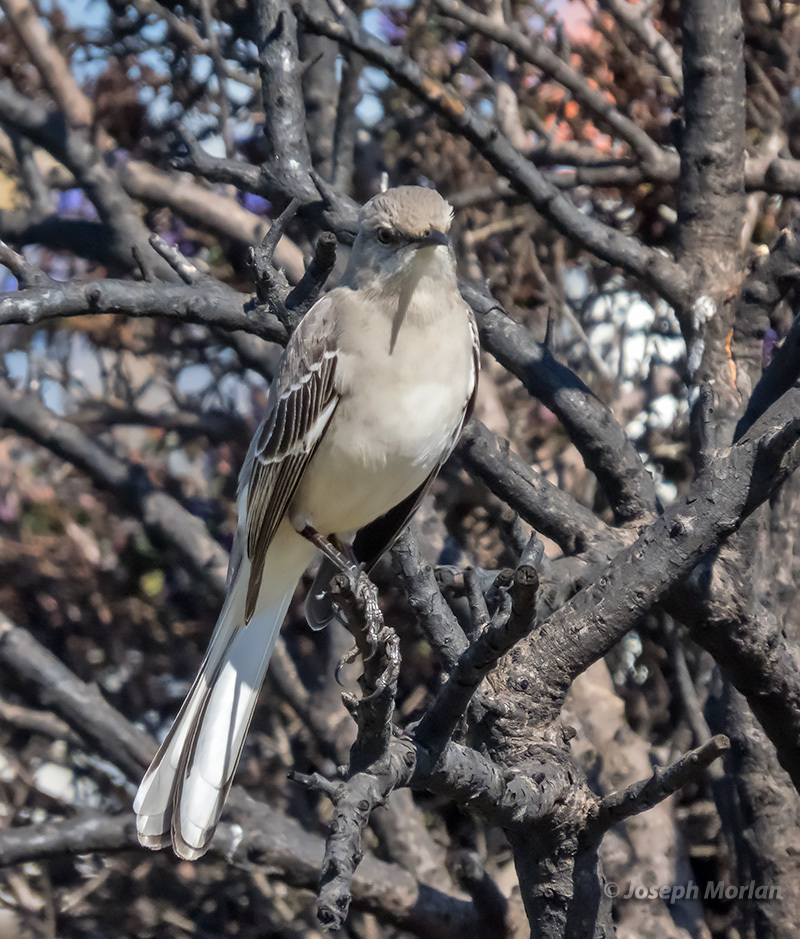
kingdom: Animalia
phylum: Chordata
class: Aves
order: Passeriformes
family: Mimidae
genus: Mimus
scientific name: Mimus polyglottos
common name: Northern mockingbird
